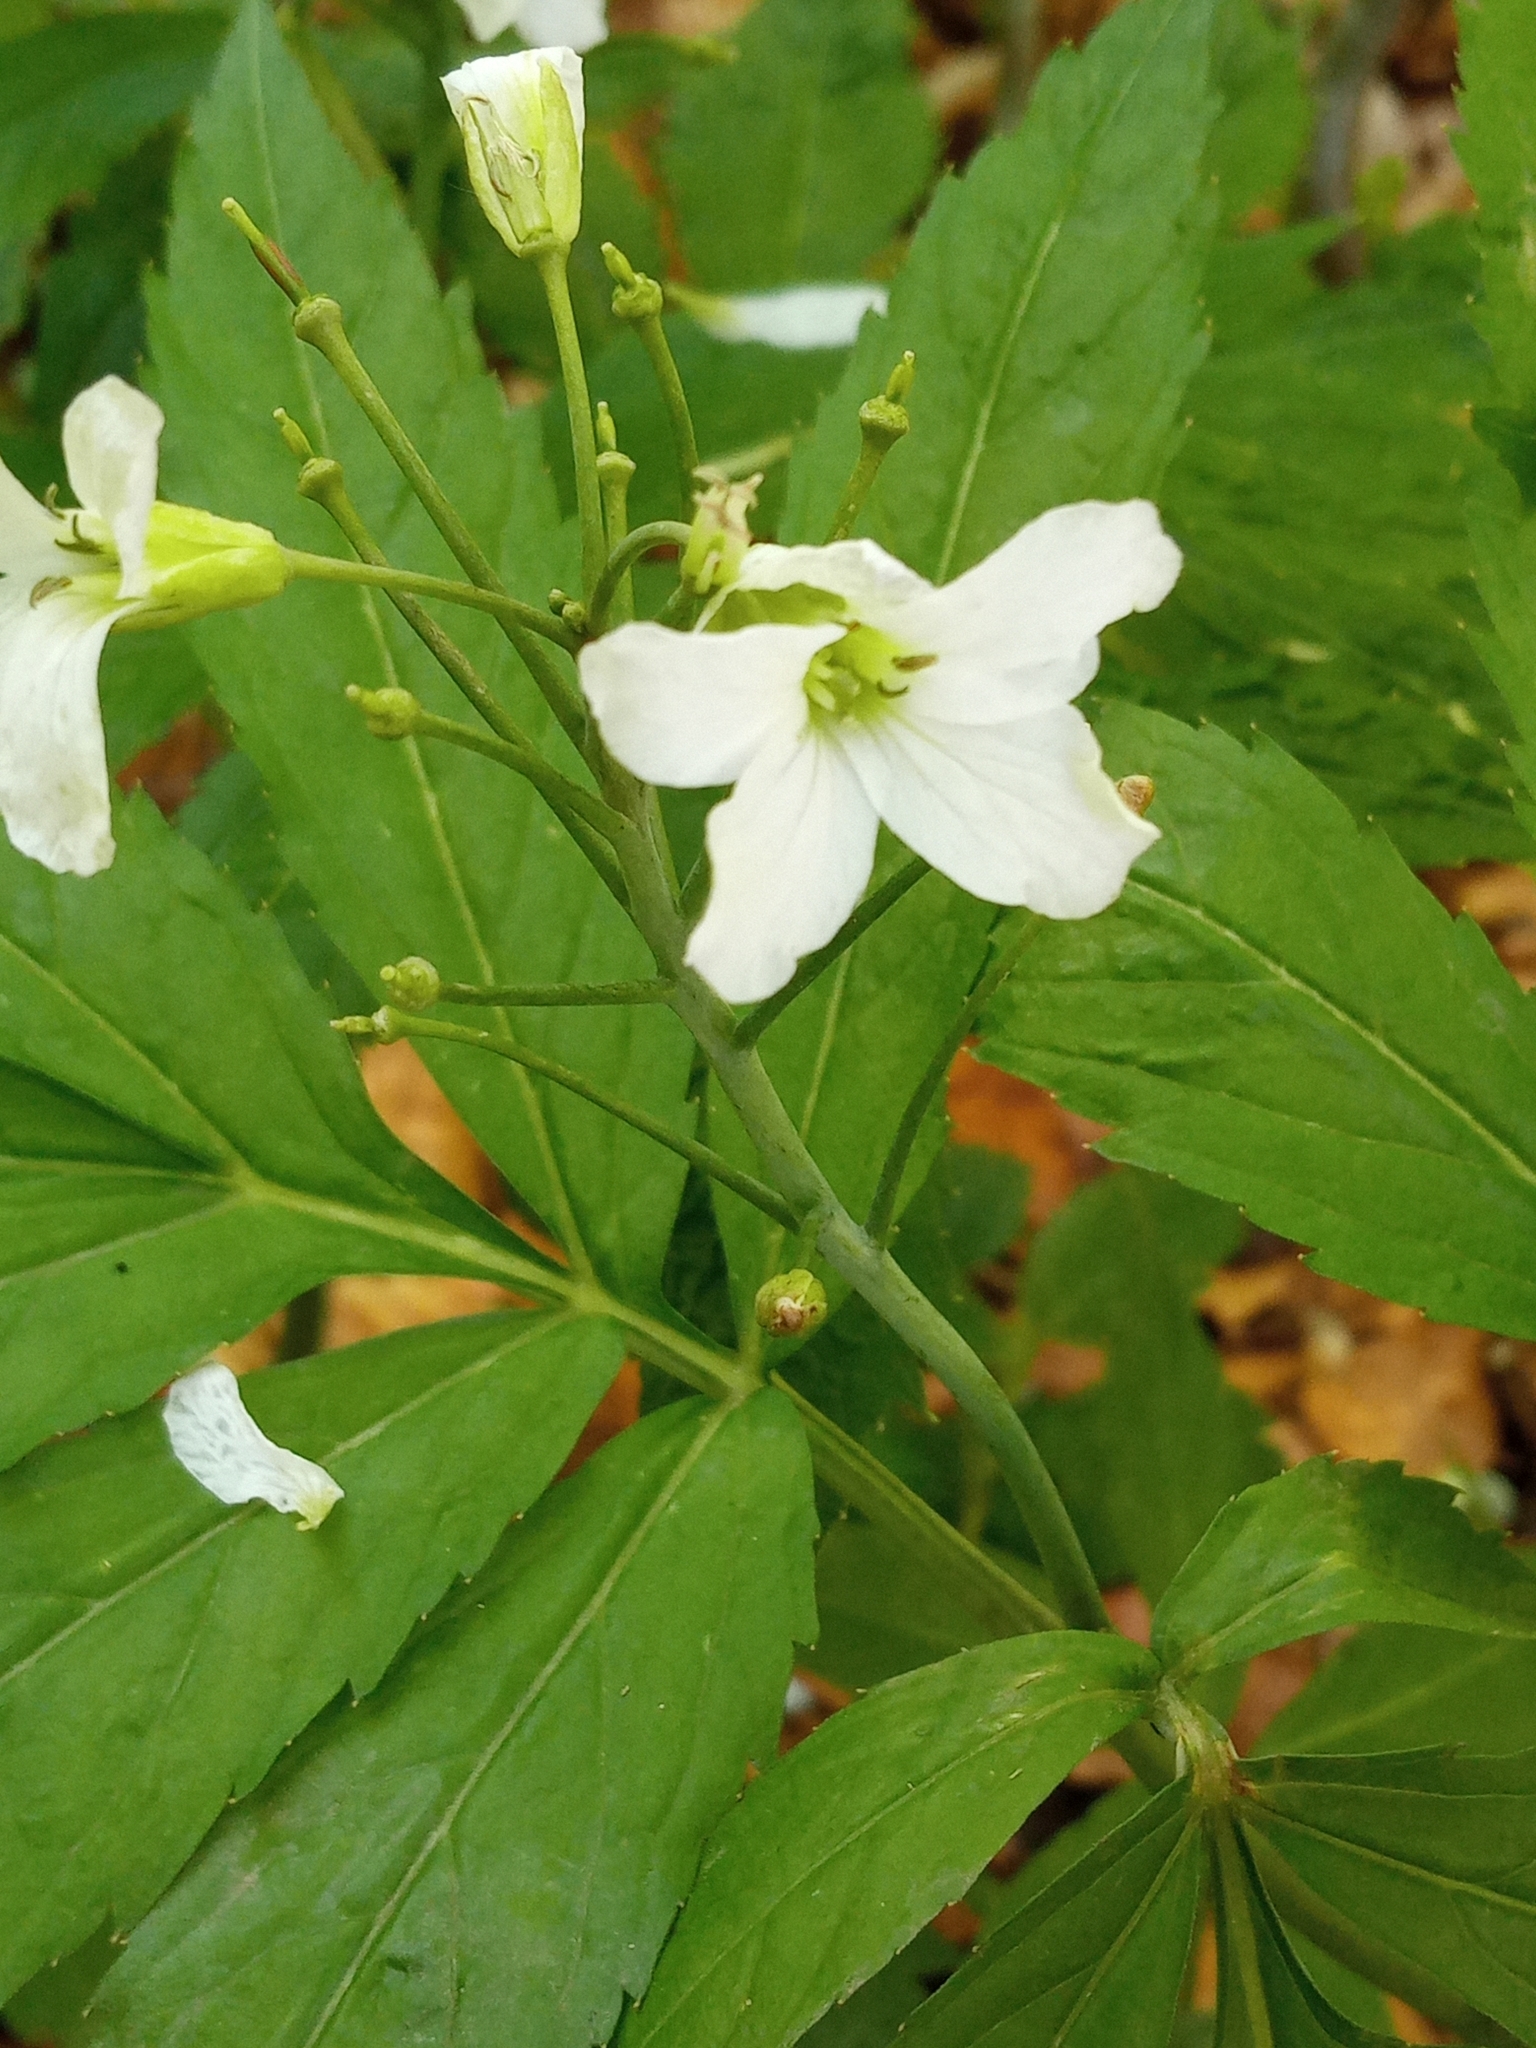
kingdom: Plantae
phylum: Tracheophyta
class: Magnoliopsida
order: Brassicales
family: Brassicaceae
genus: Cardamine
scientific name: Cardamine heptaphylla
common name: Pinnate coralroot
